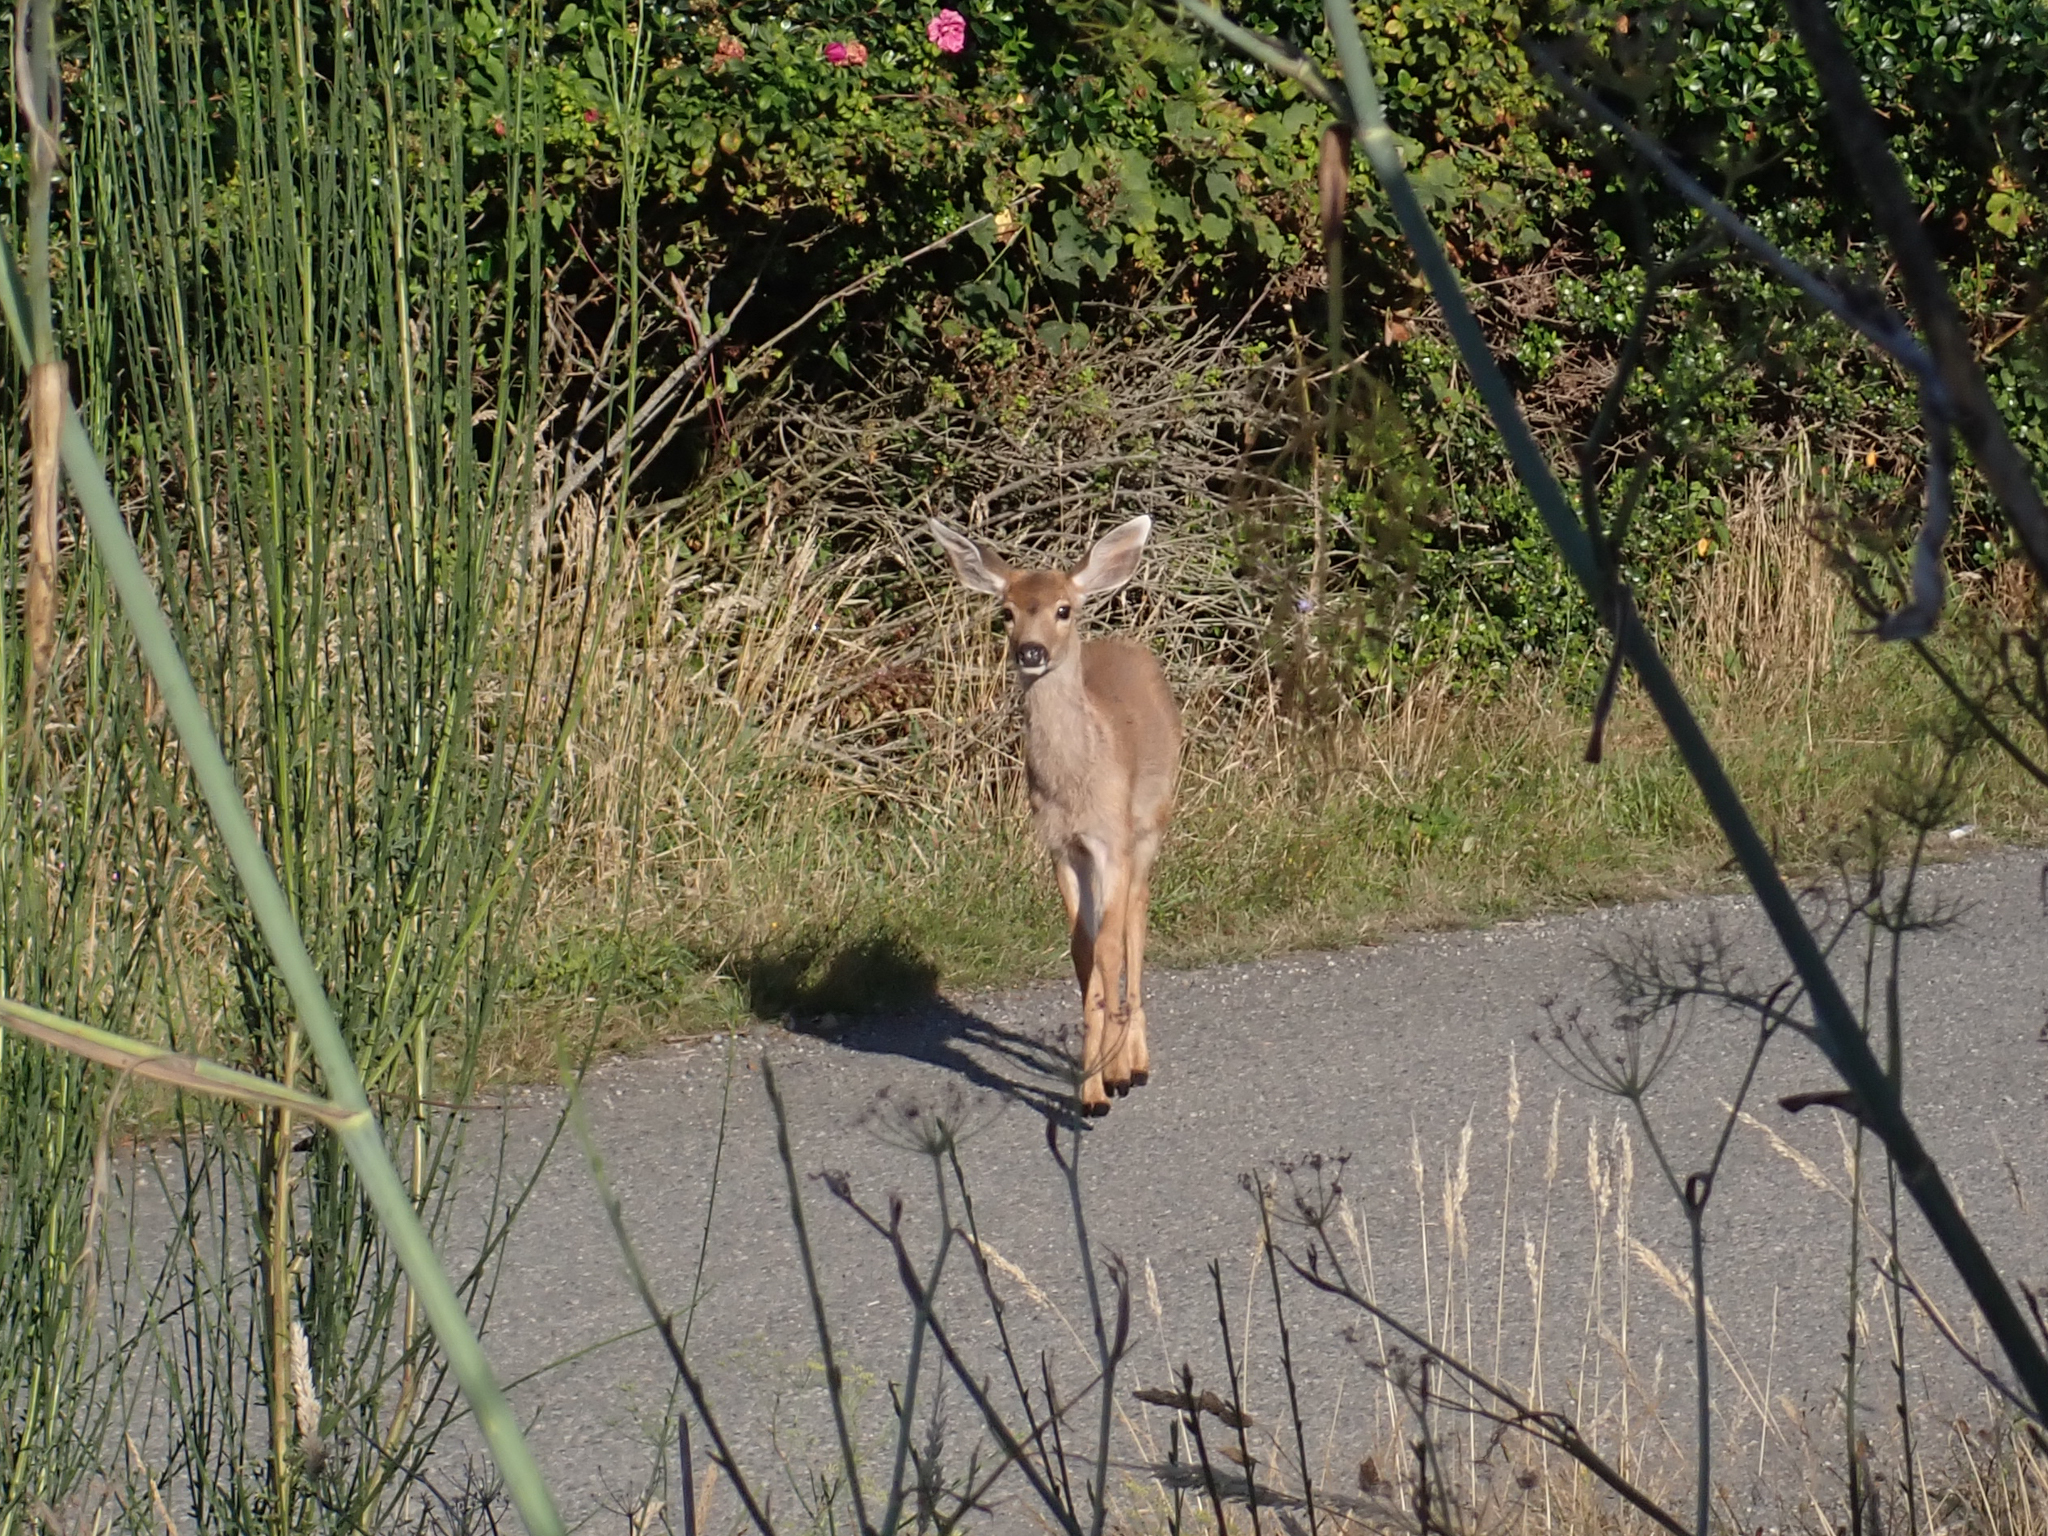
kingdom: Animalia
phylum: Chordata
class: Mammalia
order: Artiodactyla
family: Cervidae
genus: Odocoileus
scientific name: Odocoileus hemionus
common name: Mule deer
